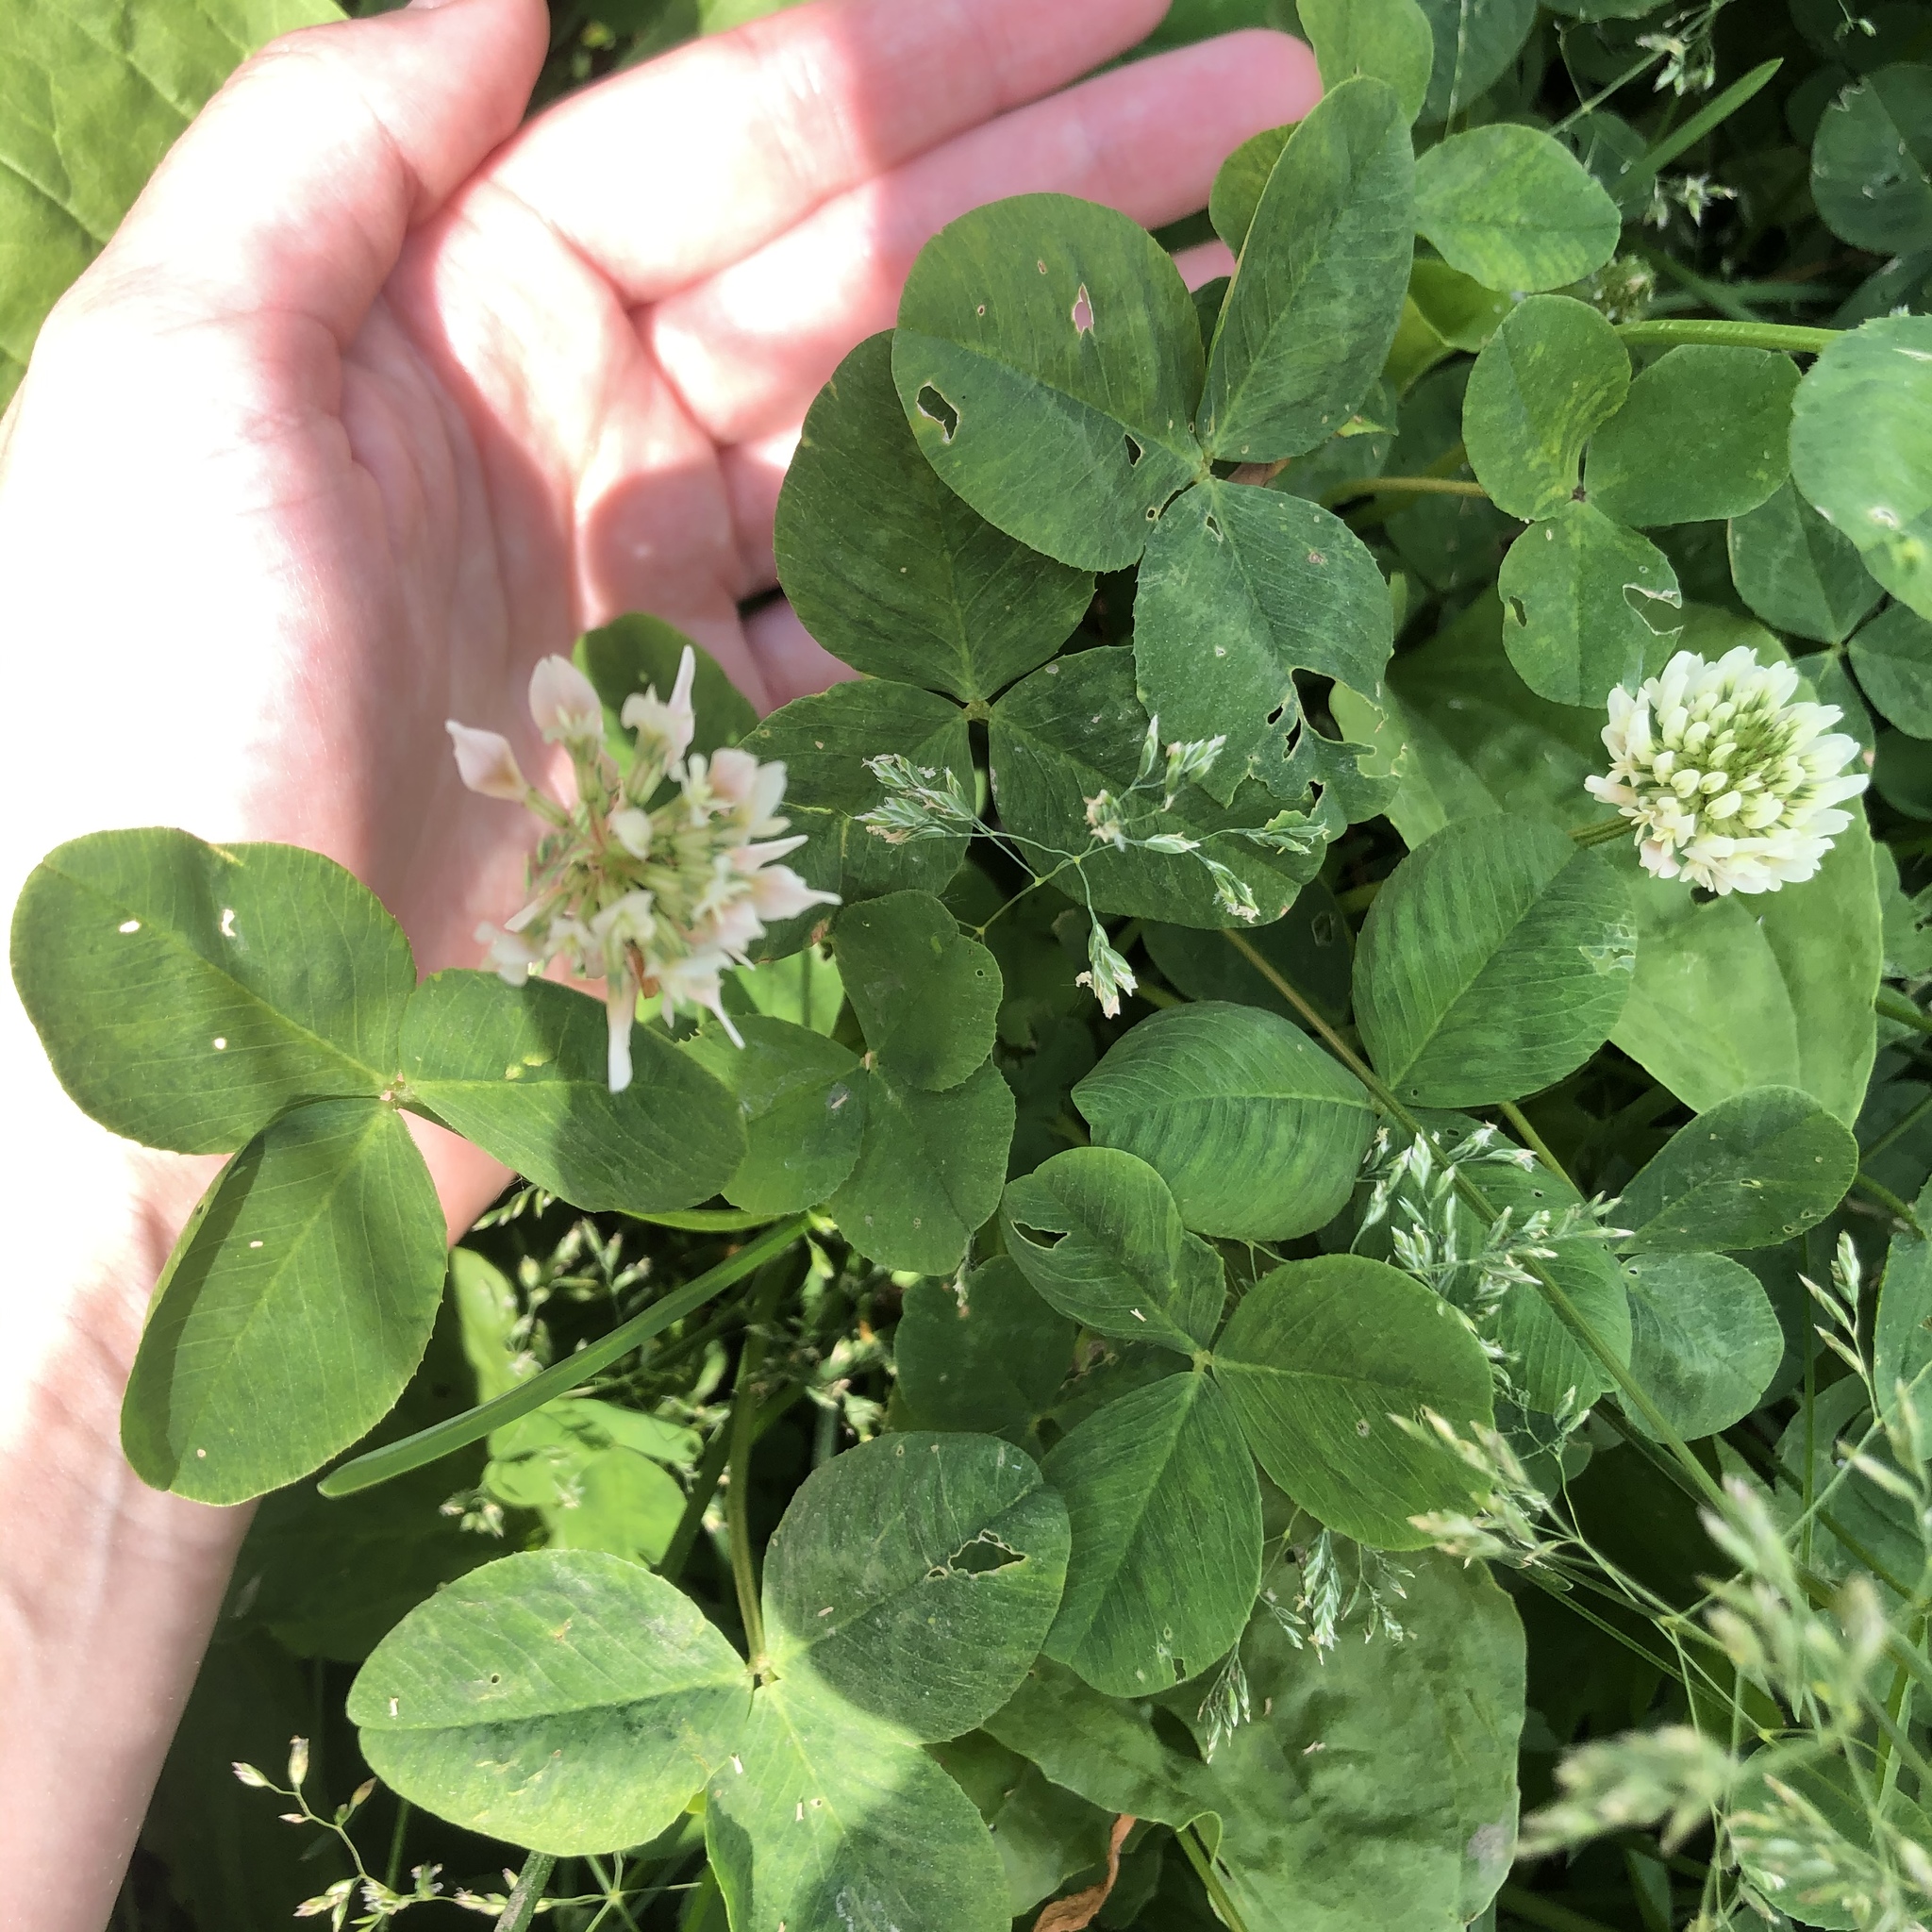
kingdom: Plantae
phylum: Tracheophyta
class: Magnoliopsida
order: Fabales
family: Fabaceae
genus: Trifolium
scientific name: Trifolium repens
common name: White clover
